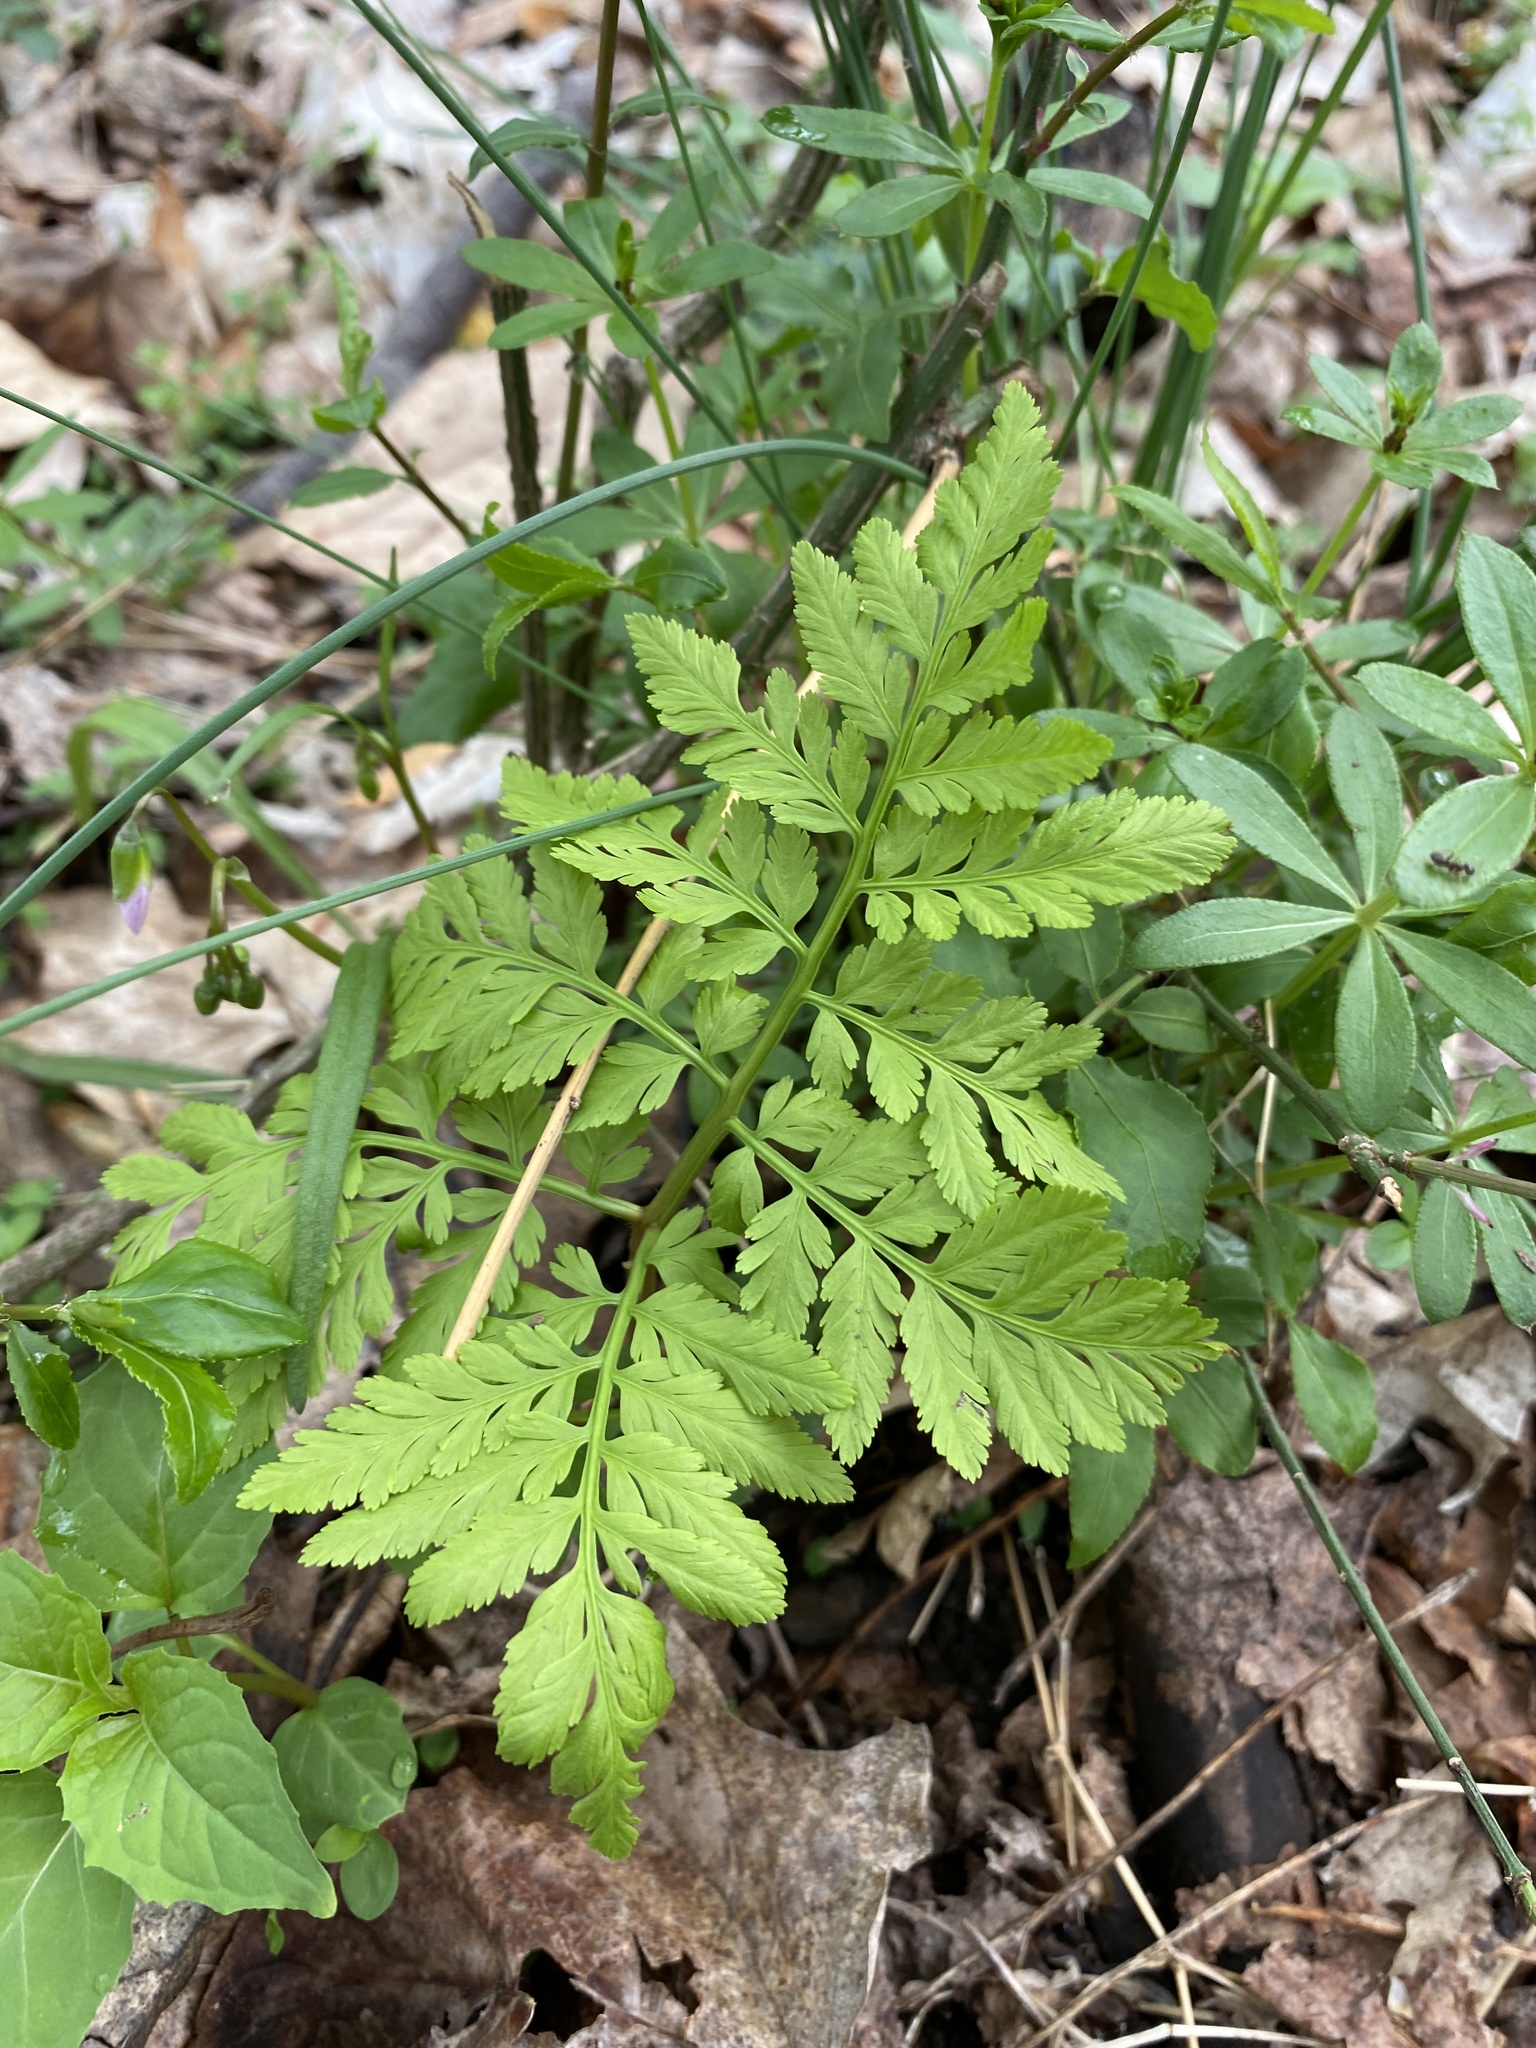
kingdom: Plantae
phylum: Tracheophyta
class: Polypodiopsida
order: Ophioglossales
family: Ophioglossaceae
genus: Botrypus
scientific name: Botrypus virginianus
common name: Common grapefern
